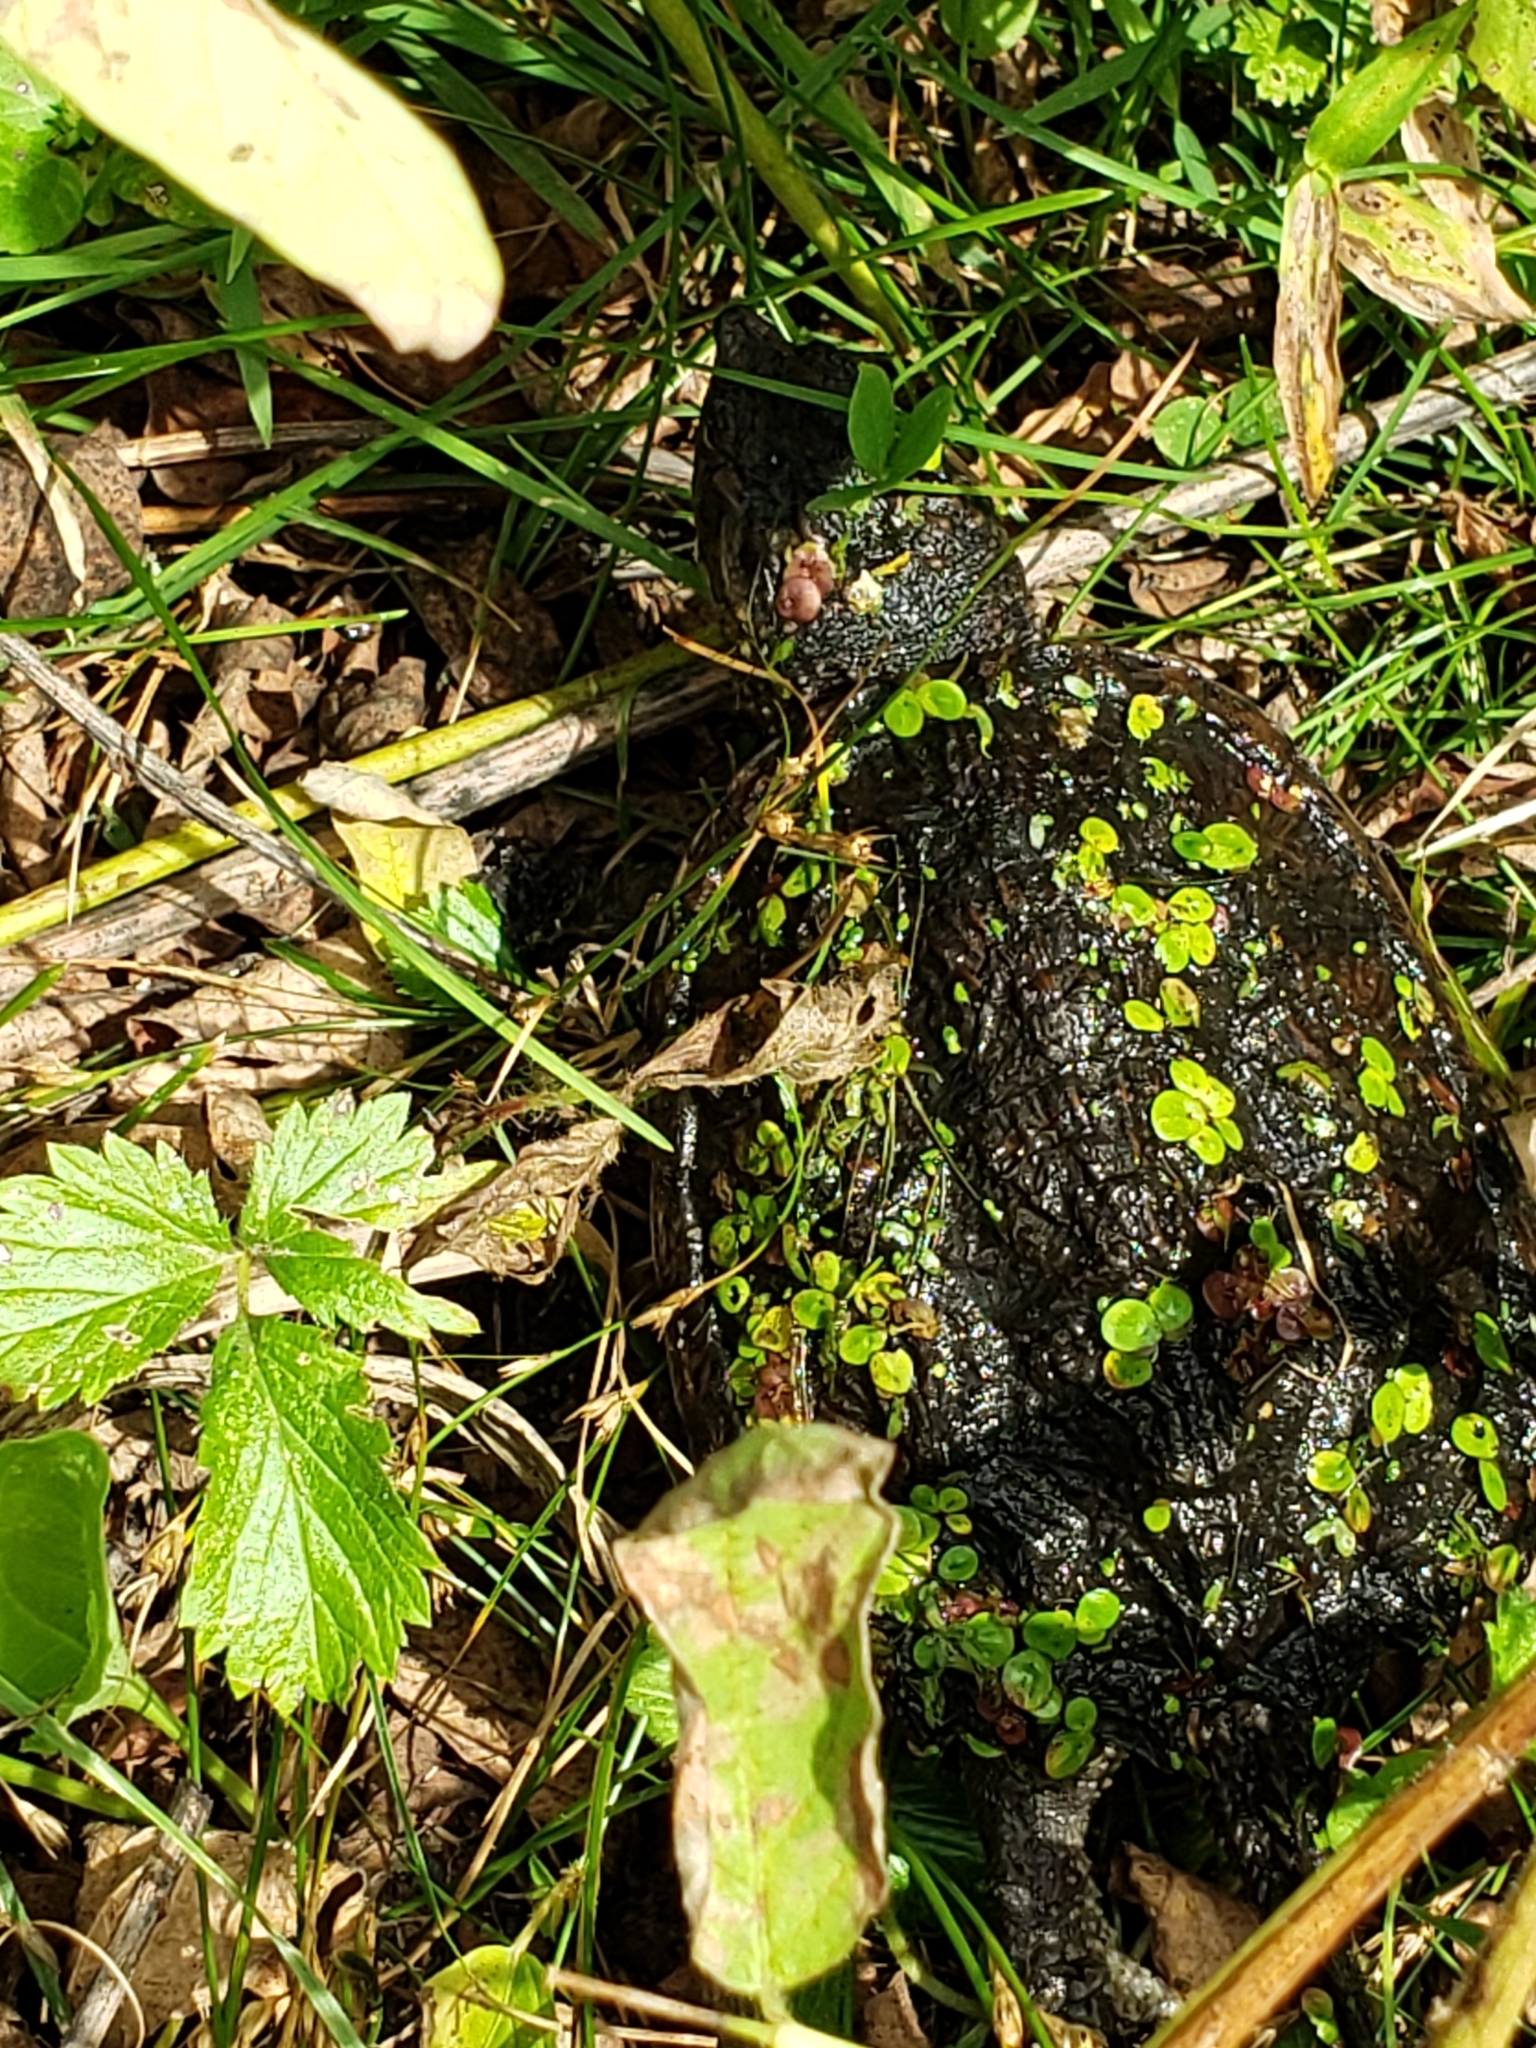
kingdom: Animalia
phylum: Chordata
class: Testudines
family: Chelydridae
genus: Chelydra
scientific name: Chelydra serpentina
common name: Common snapping turtle
